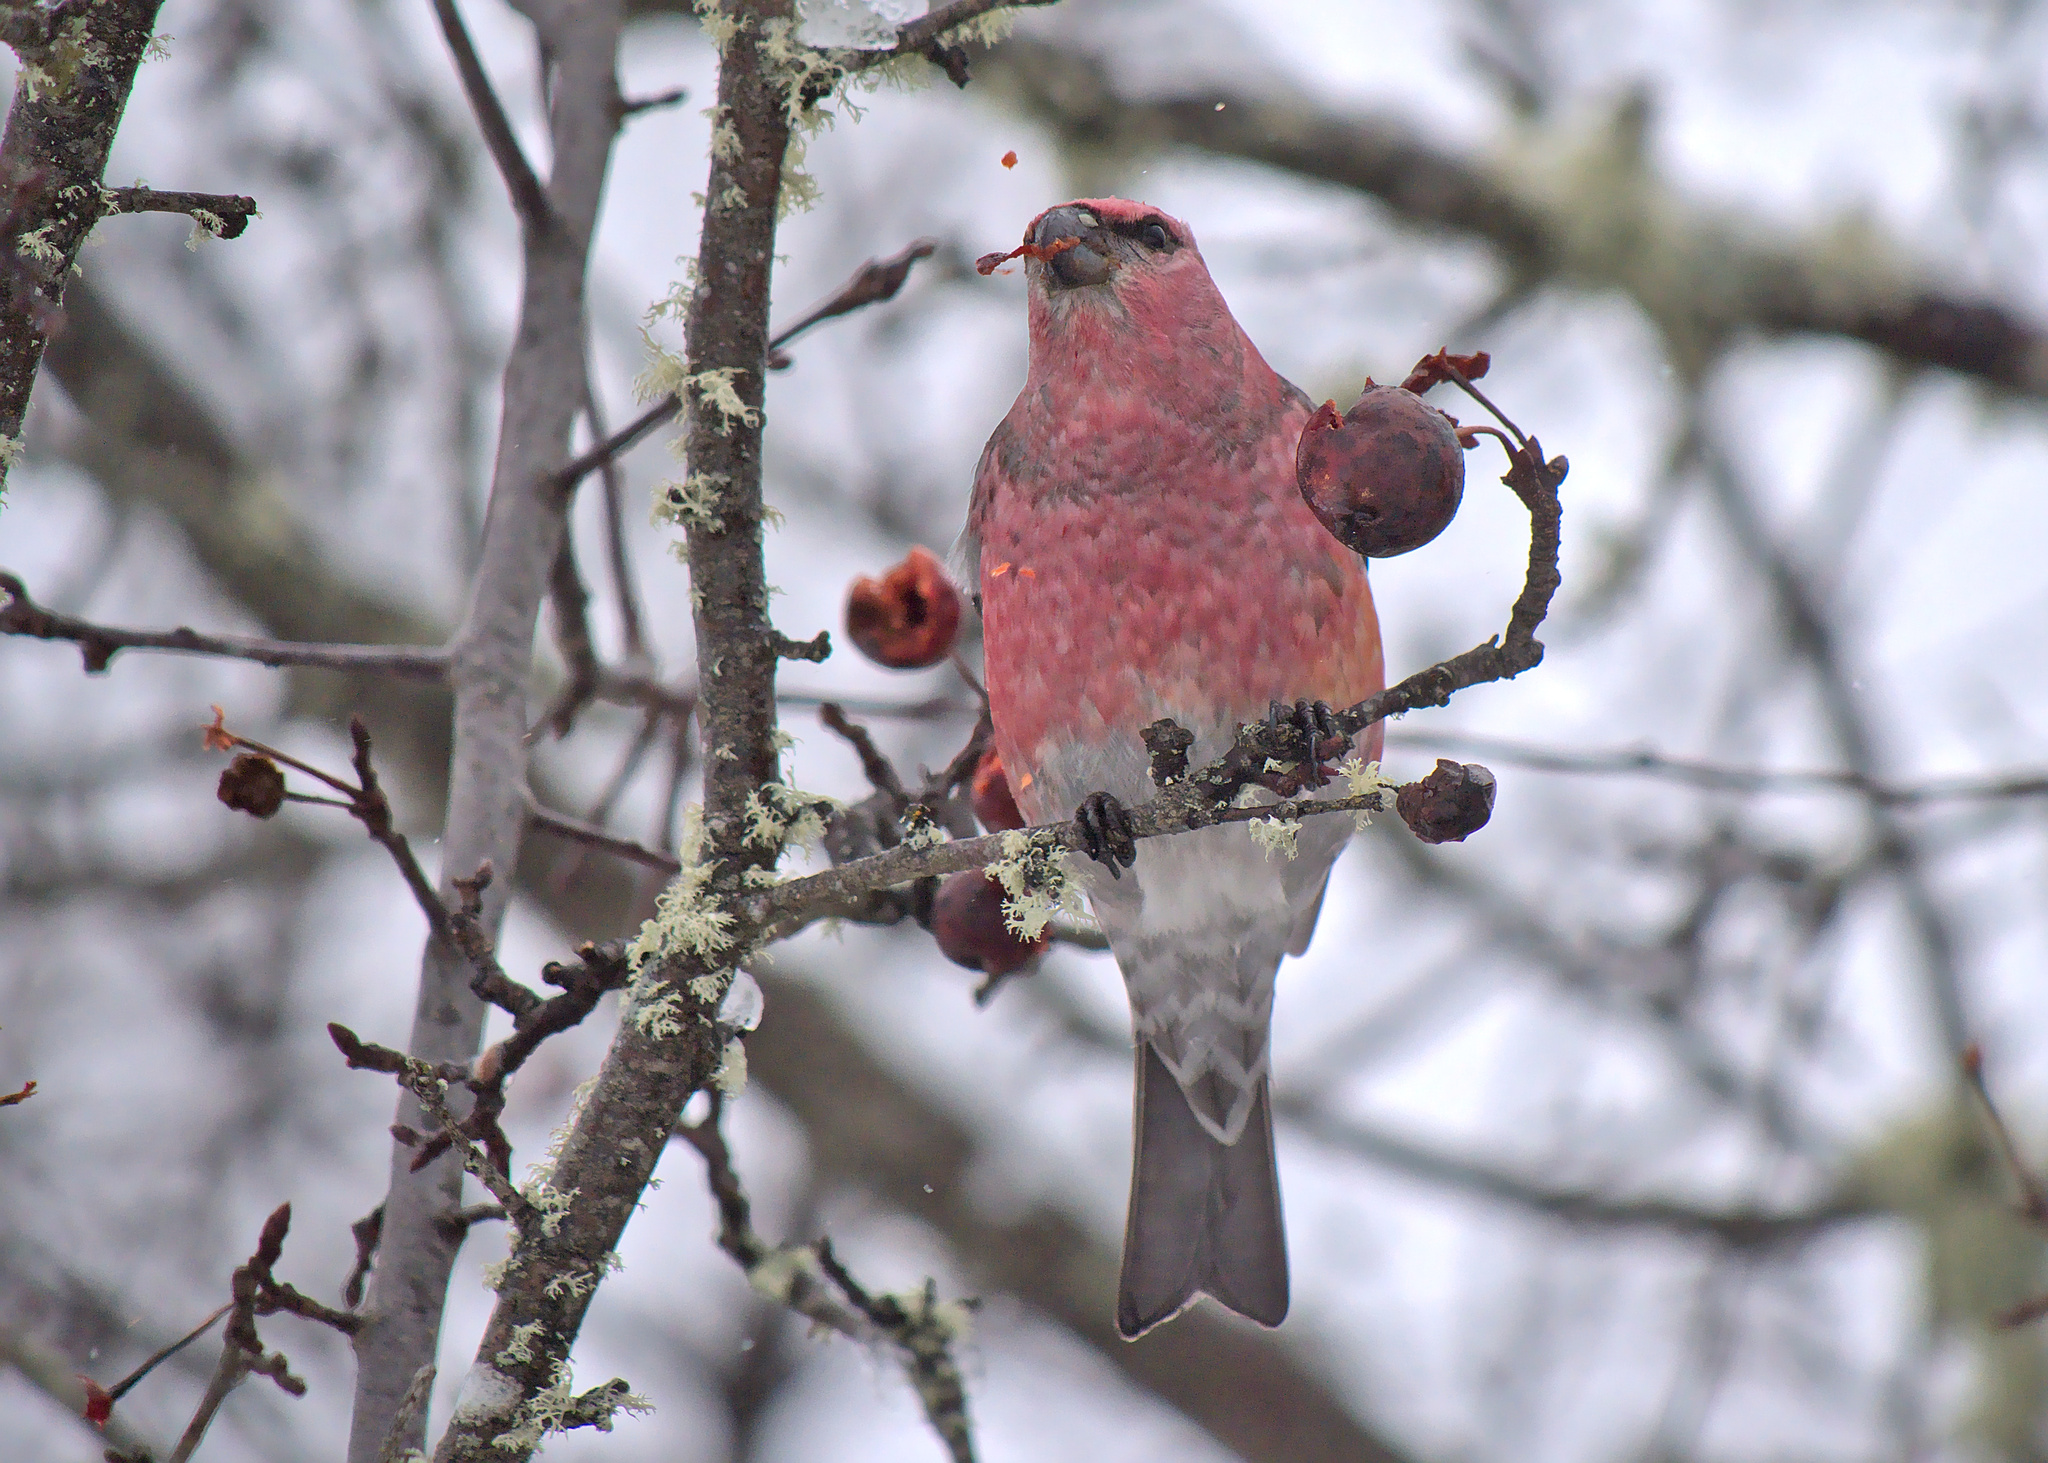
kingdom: Animalia
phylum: Chordata
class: Aves
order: Passeriformes
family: Fringillidae
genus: Pinicola
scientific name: Pinicola enucleator
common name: Pine grosbeak
